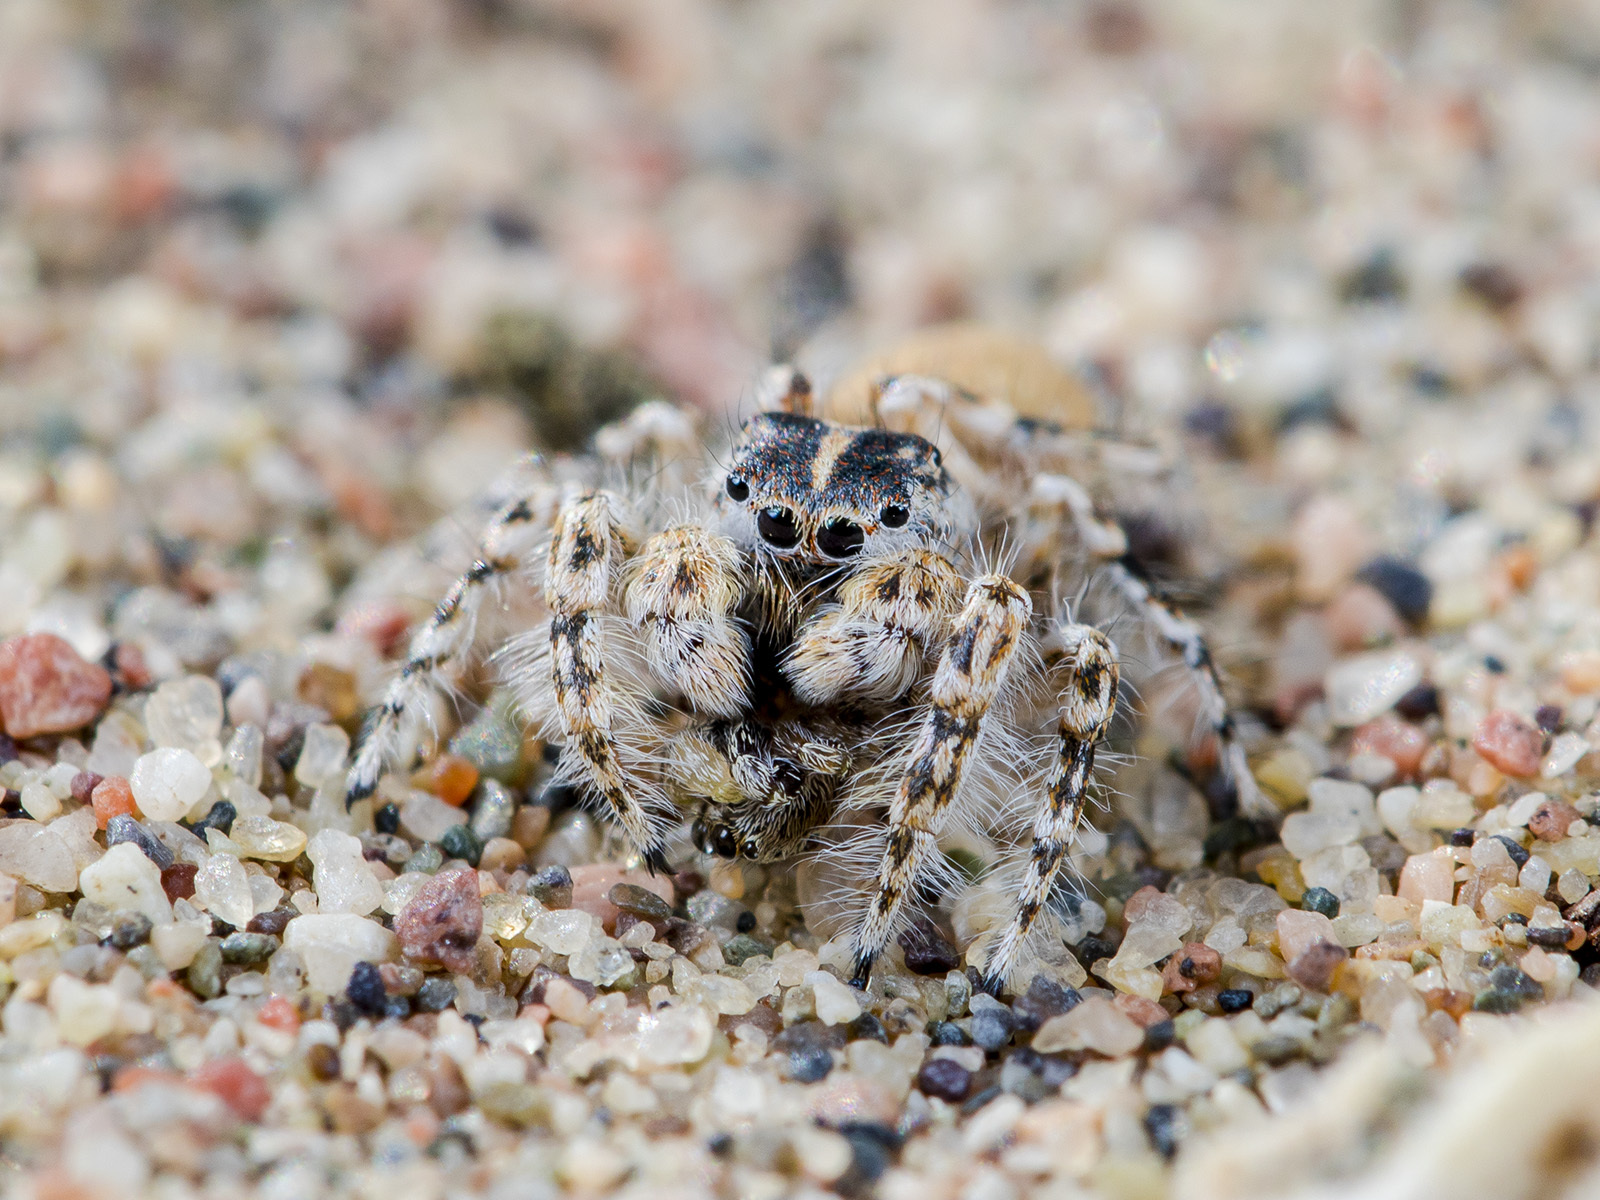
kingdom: Animalia
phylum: Arthropoda
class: Arachnida
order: Araneae
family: Salticidae
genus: Yllenus
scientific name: Yllenus turkestanicus
